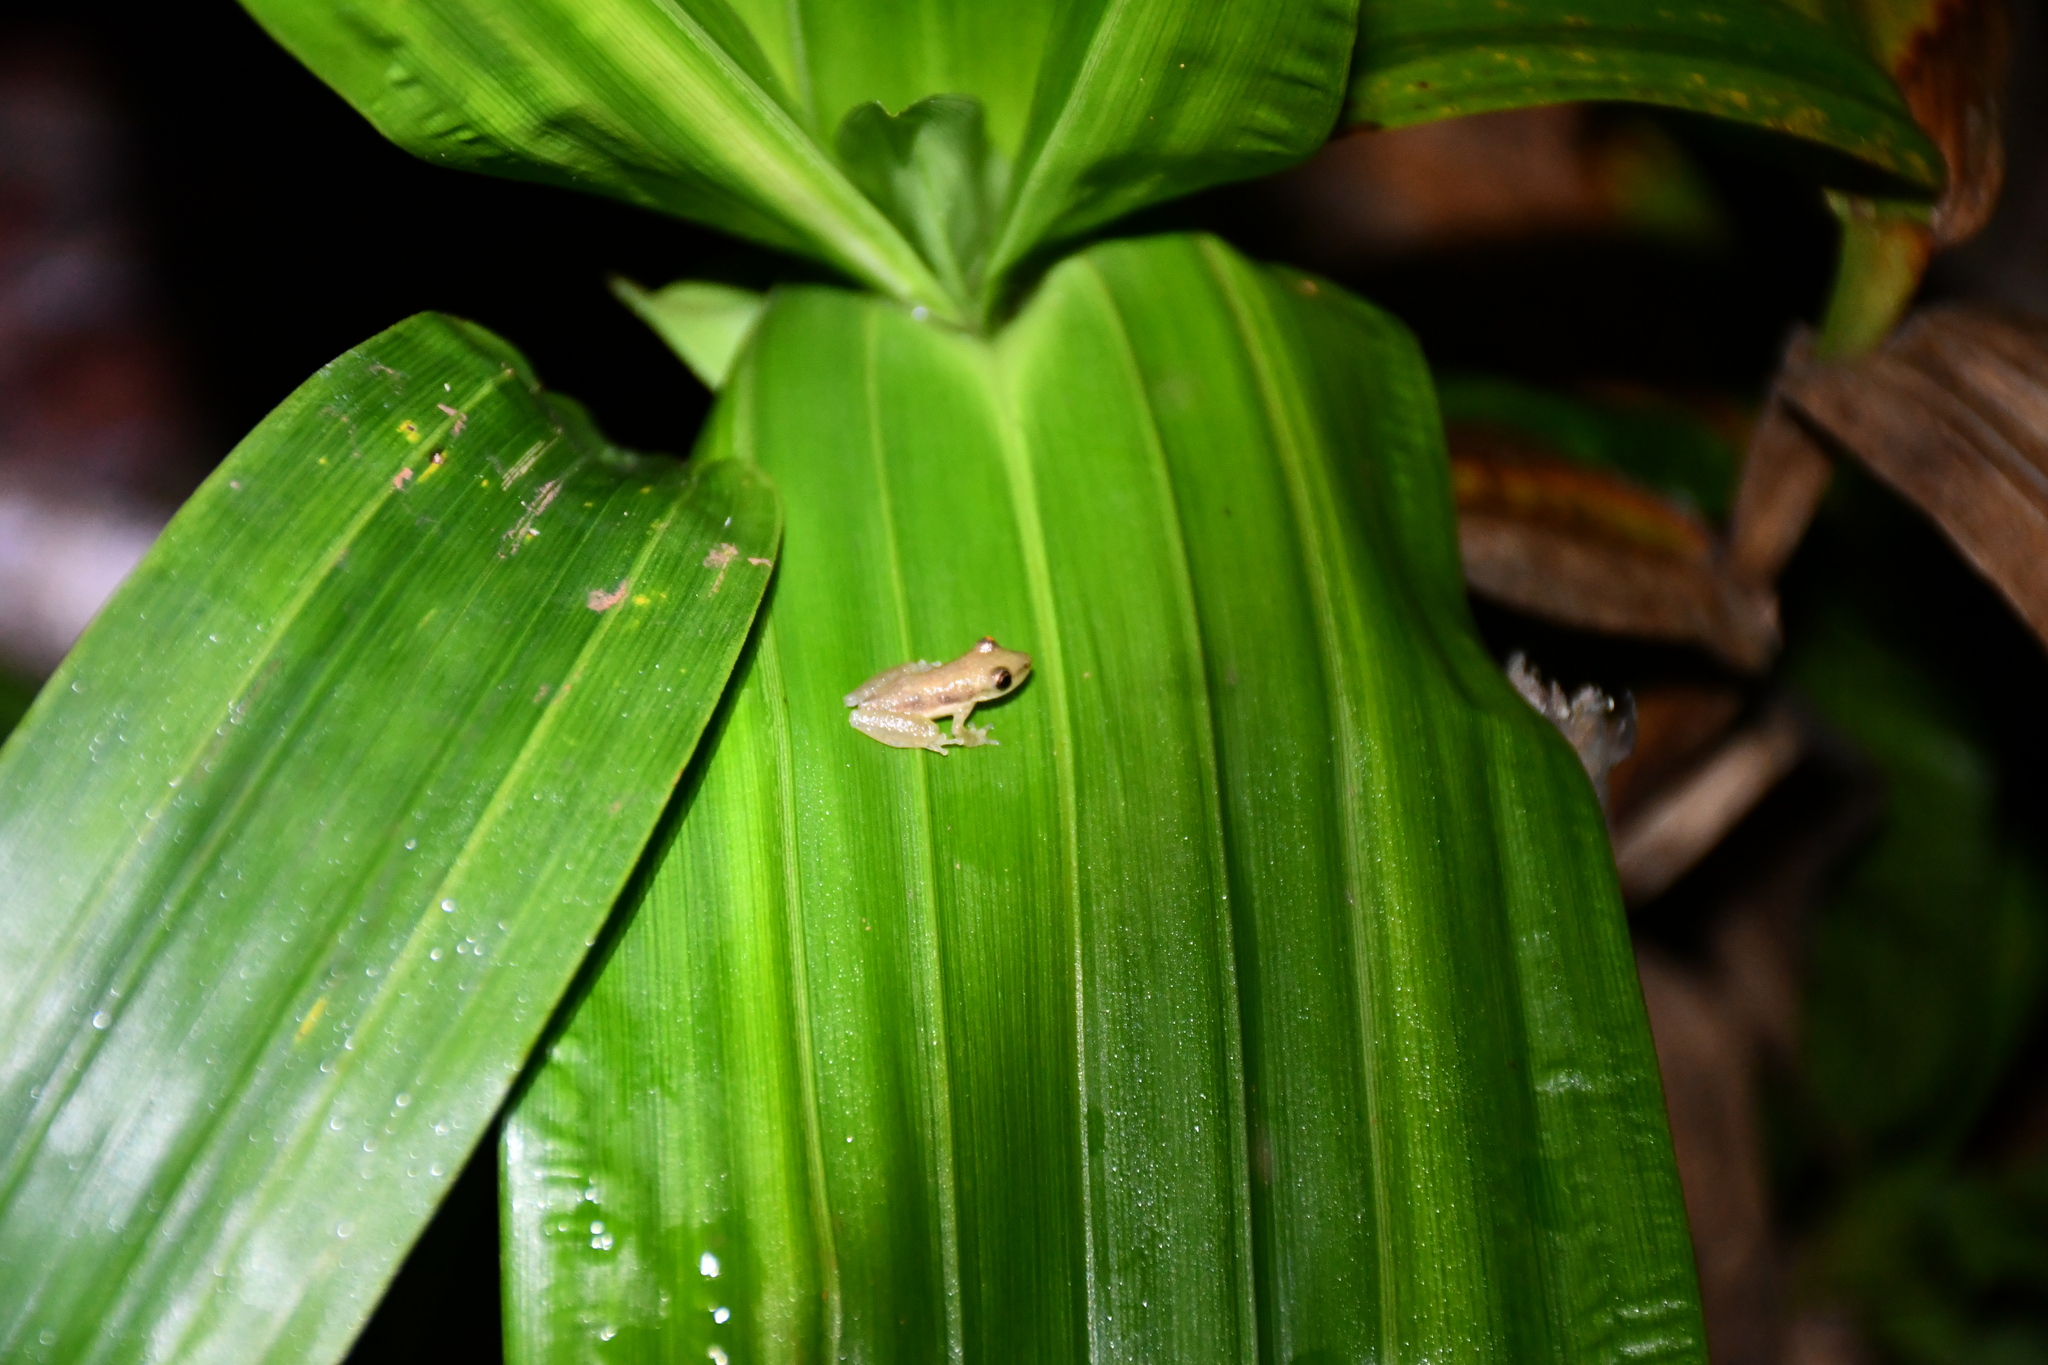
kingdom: Animalia
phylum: Chordata
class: Amphibia
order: Anura
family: Hylidae
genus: Scinax
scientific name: Scinax fuscomarginatus
